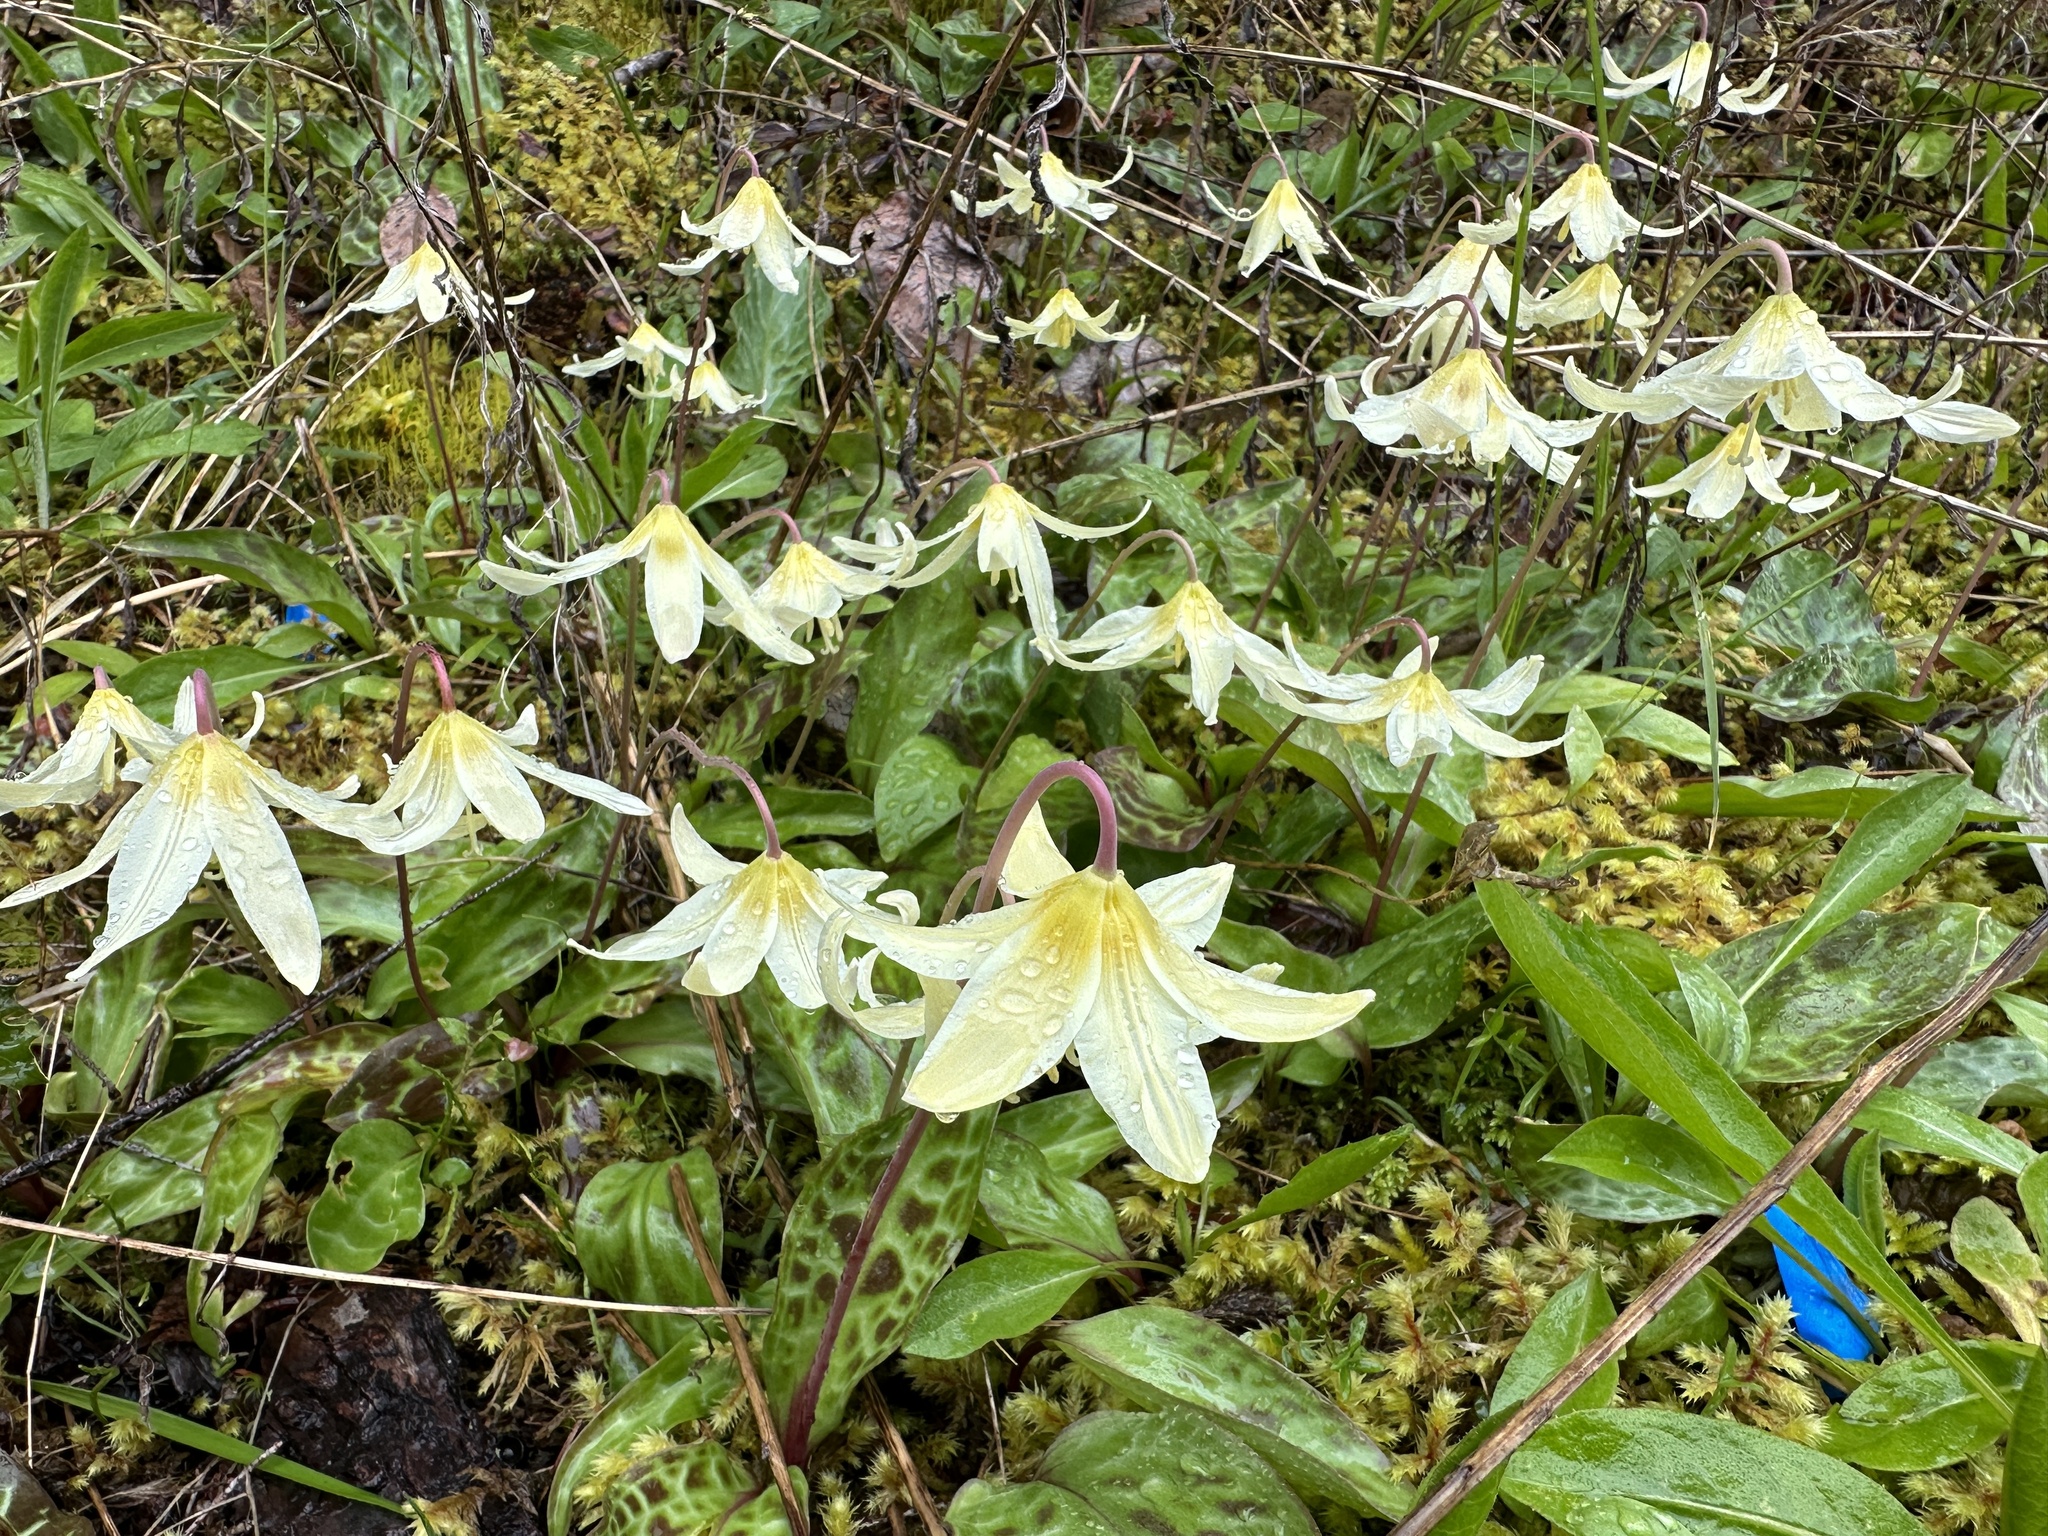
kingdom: Plantae
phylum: Tracheophyta
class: Liliopsida
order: Liliales
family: Liliaceae
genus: Erythronium
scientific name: Erythronium oregonum
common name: Giant adder's-tongue
